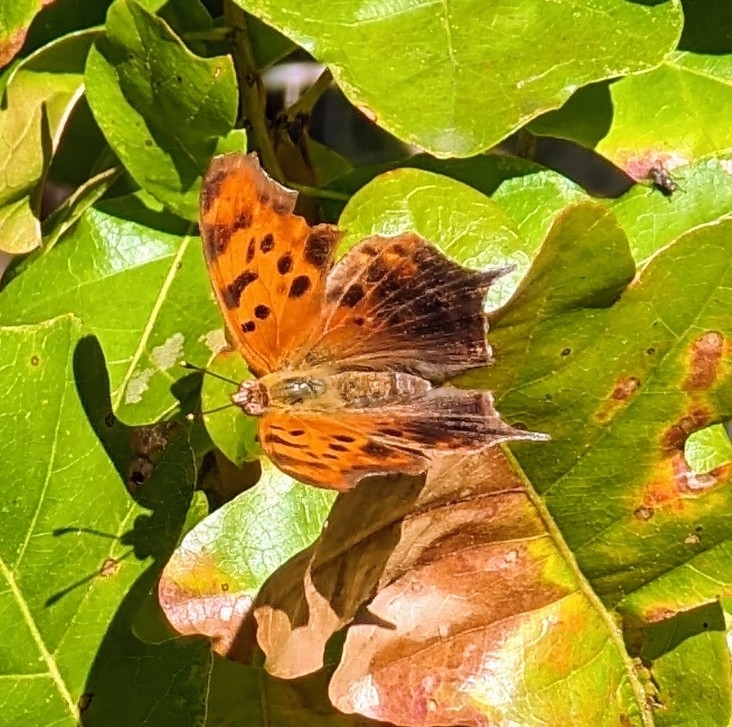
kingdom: Animalia
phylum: Arthropoda
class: Insecta
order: Lepidoptera
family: Nymphalidae
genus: Polygonia
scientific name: Polygonia interrogationis
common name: Question mark
